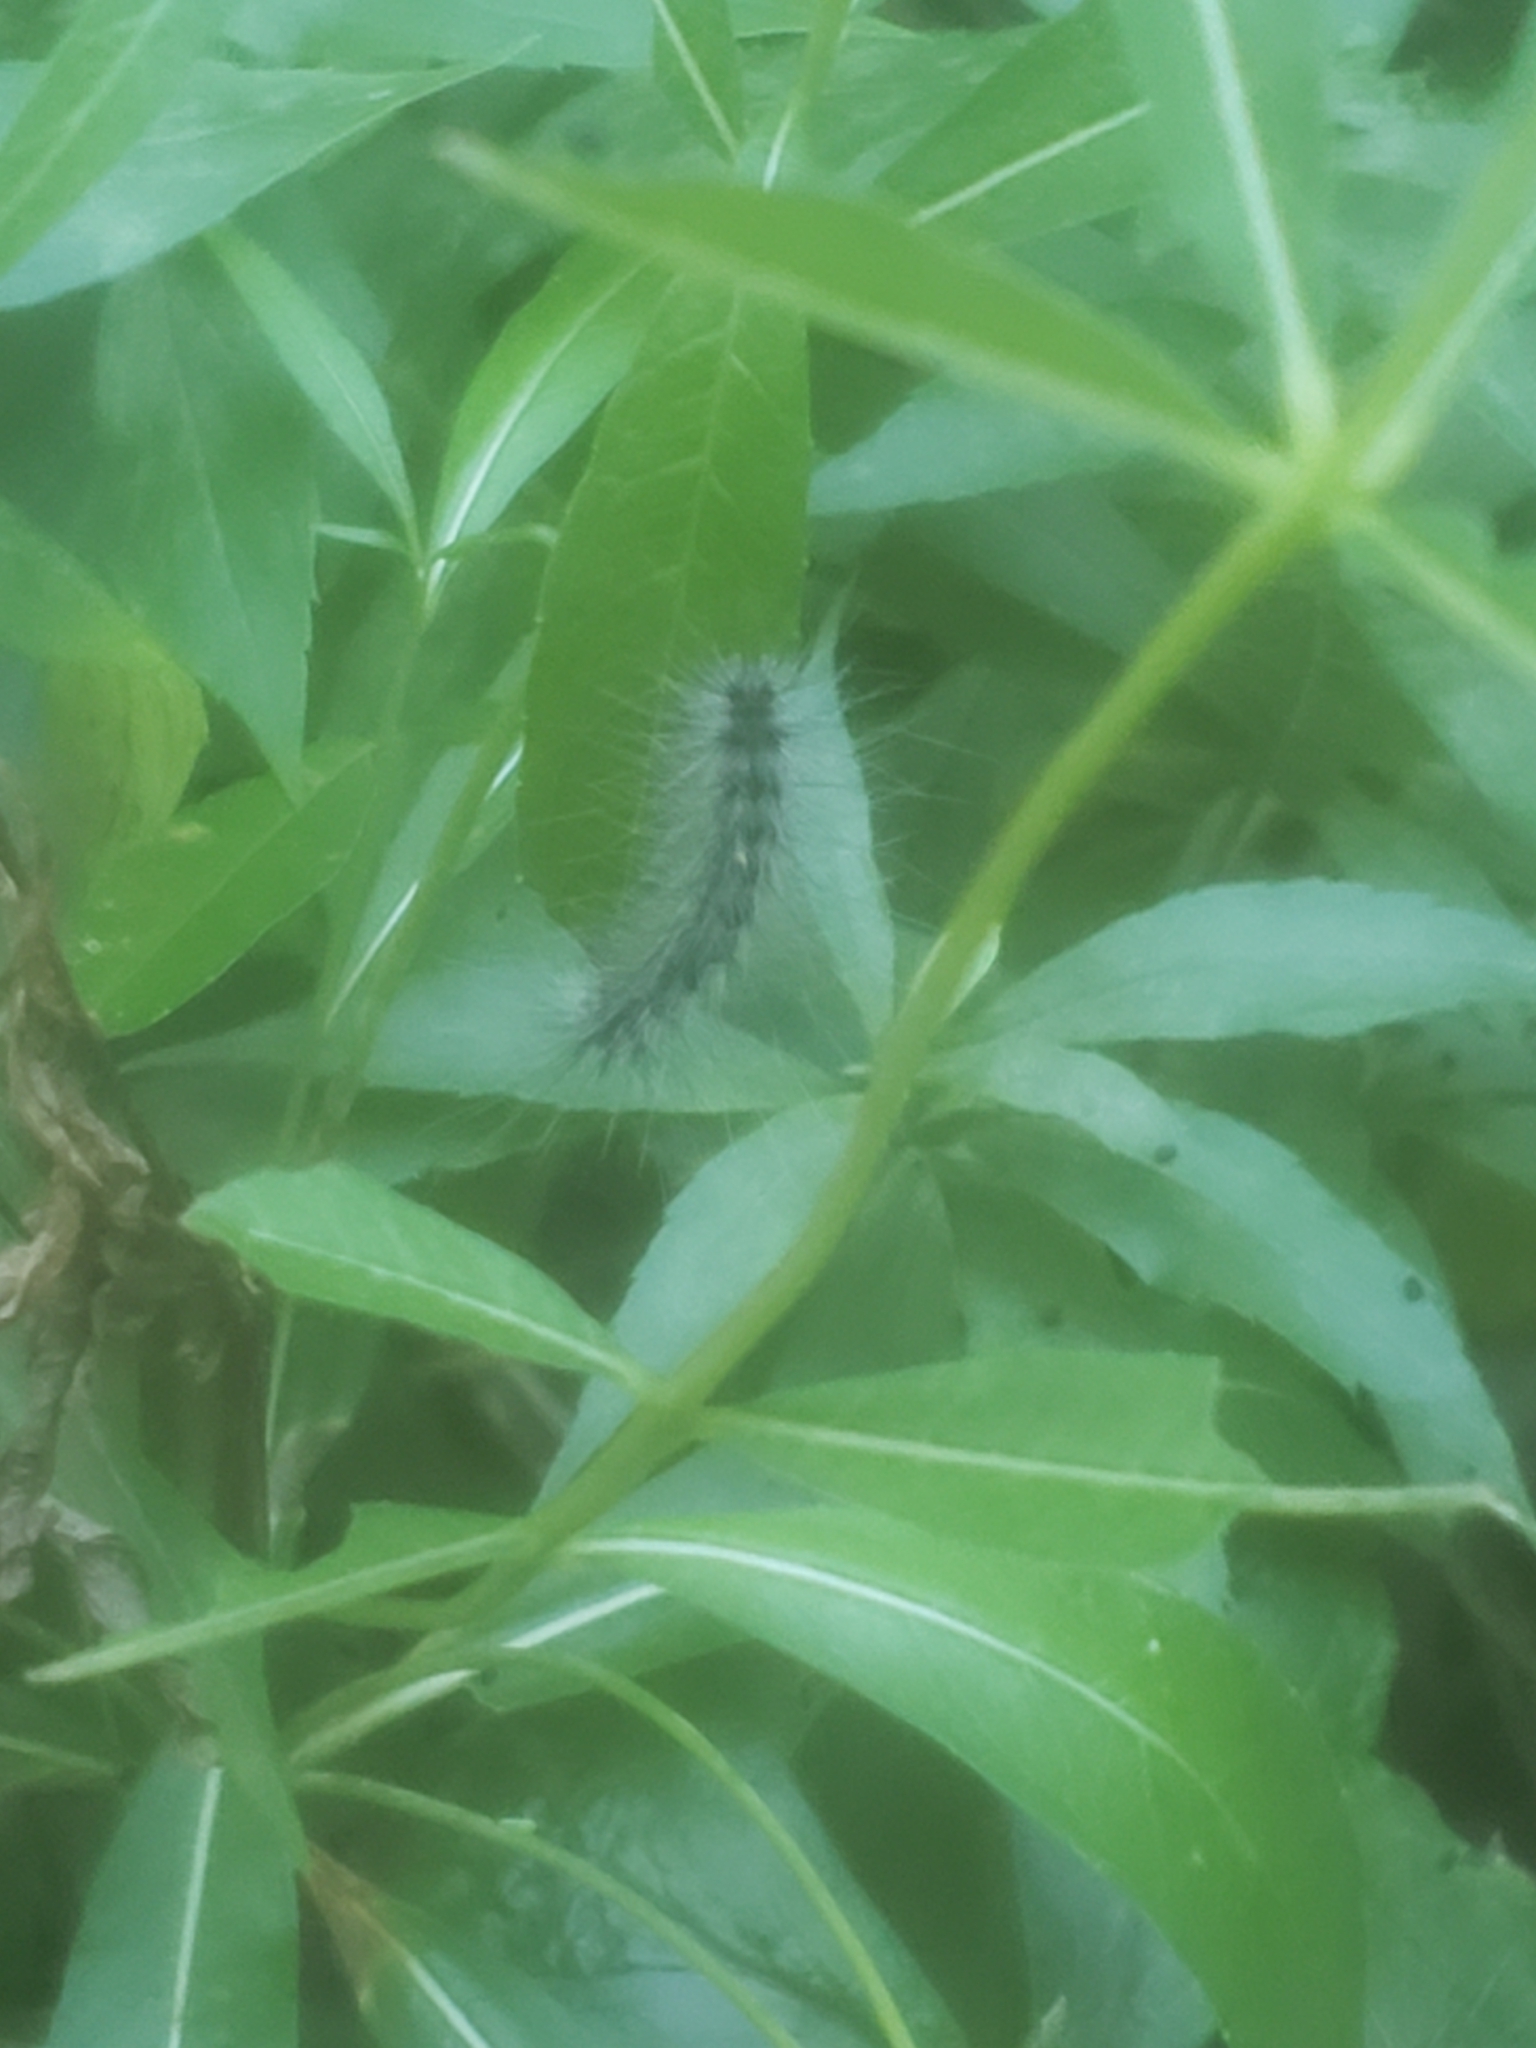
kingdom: Animalia
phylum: Arthropoda
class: Insecta
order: Lepidoptera
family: Erebidae
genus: Hyphantria
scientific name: Hyphantria cunea
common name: American white moth
